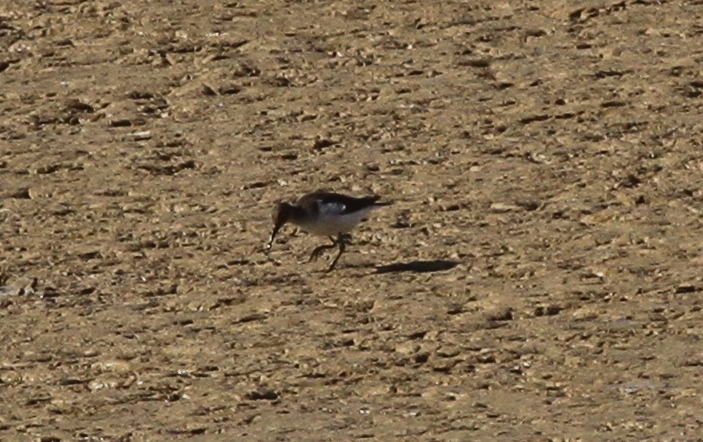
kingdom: Animalia
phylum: Chordata
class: Aves
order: Charadriiformes
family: Scolopacidae
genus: Actitis
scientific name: Actitis hypoleucos
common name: Common sandpiper
